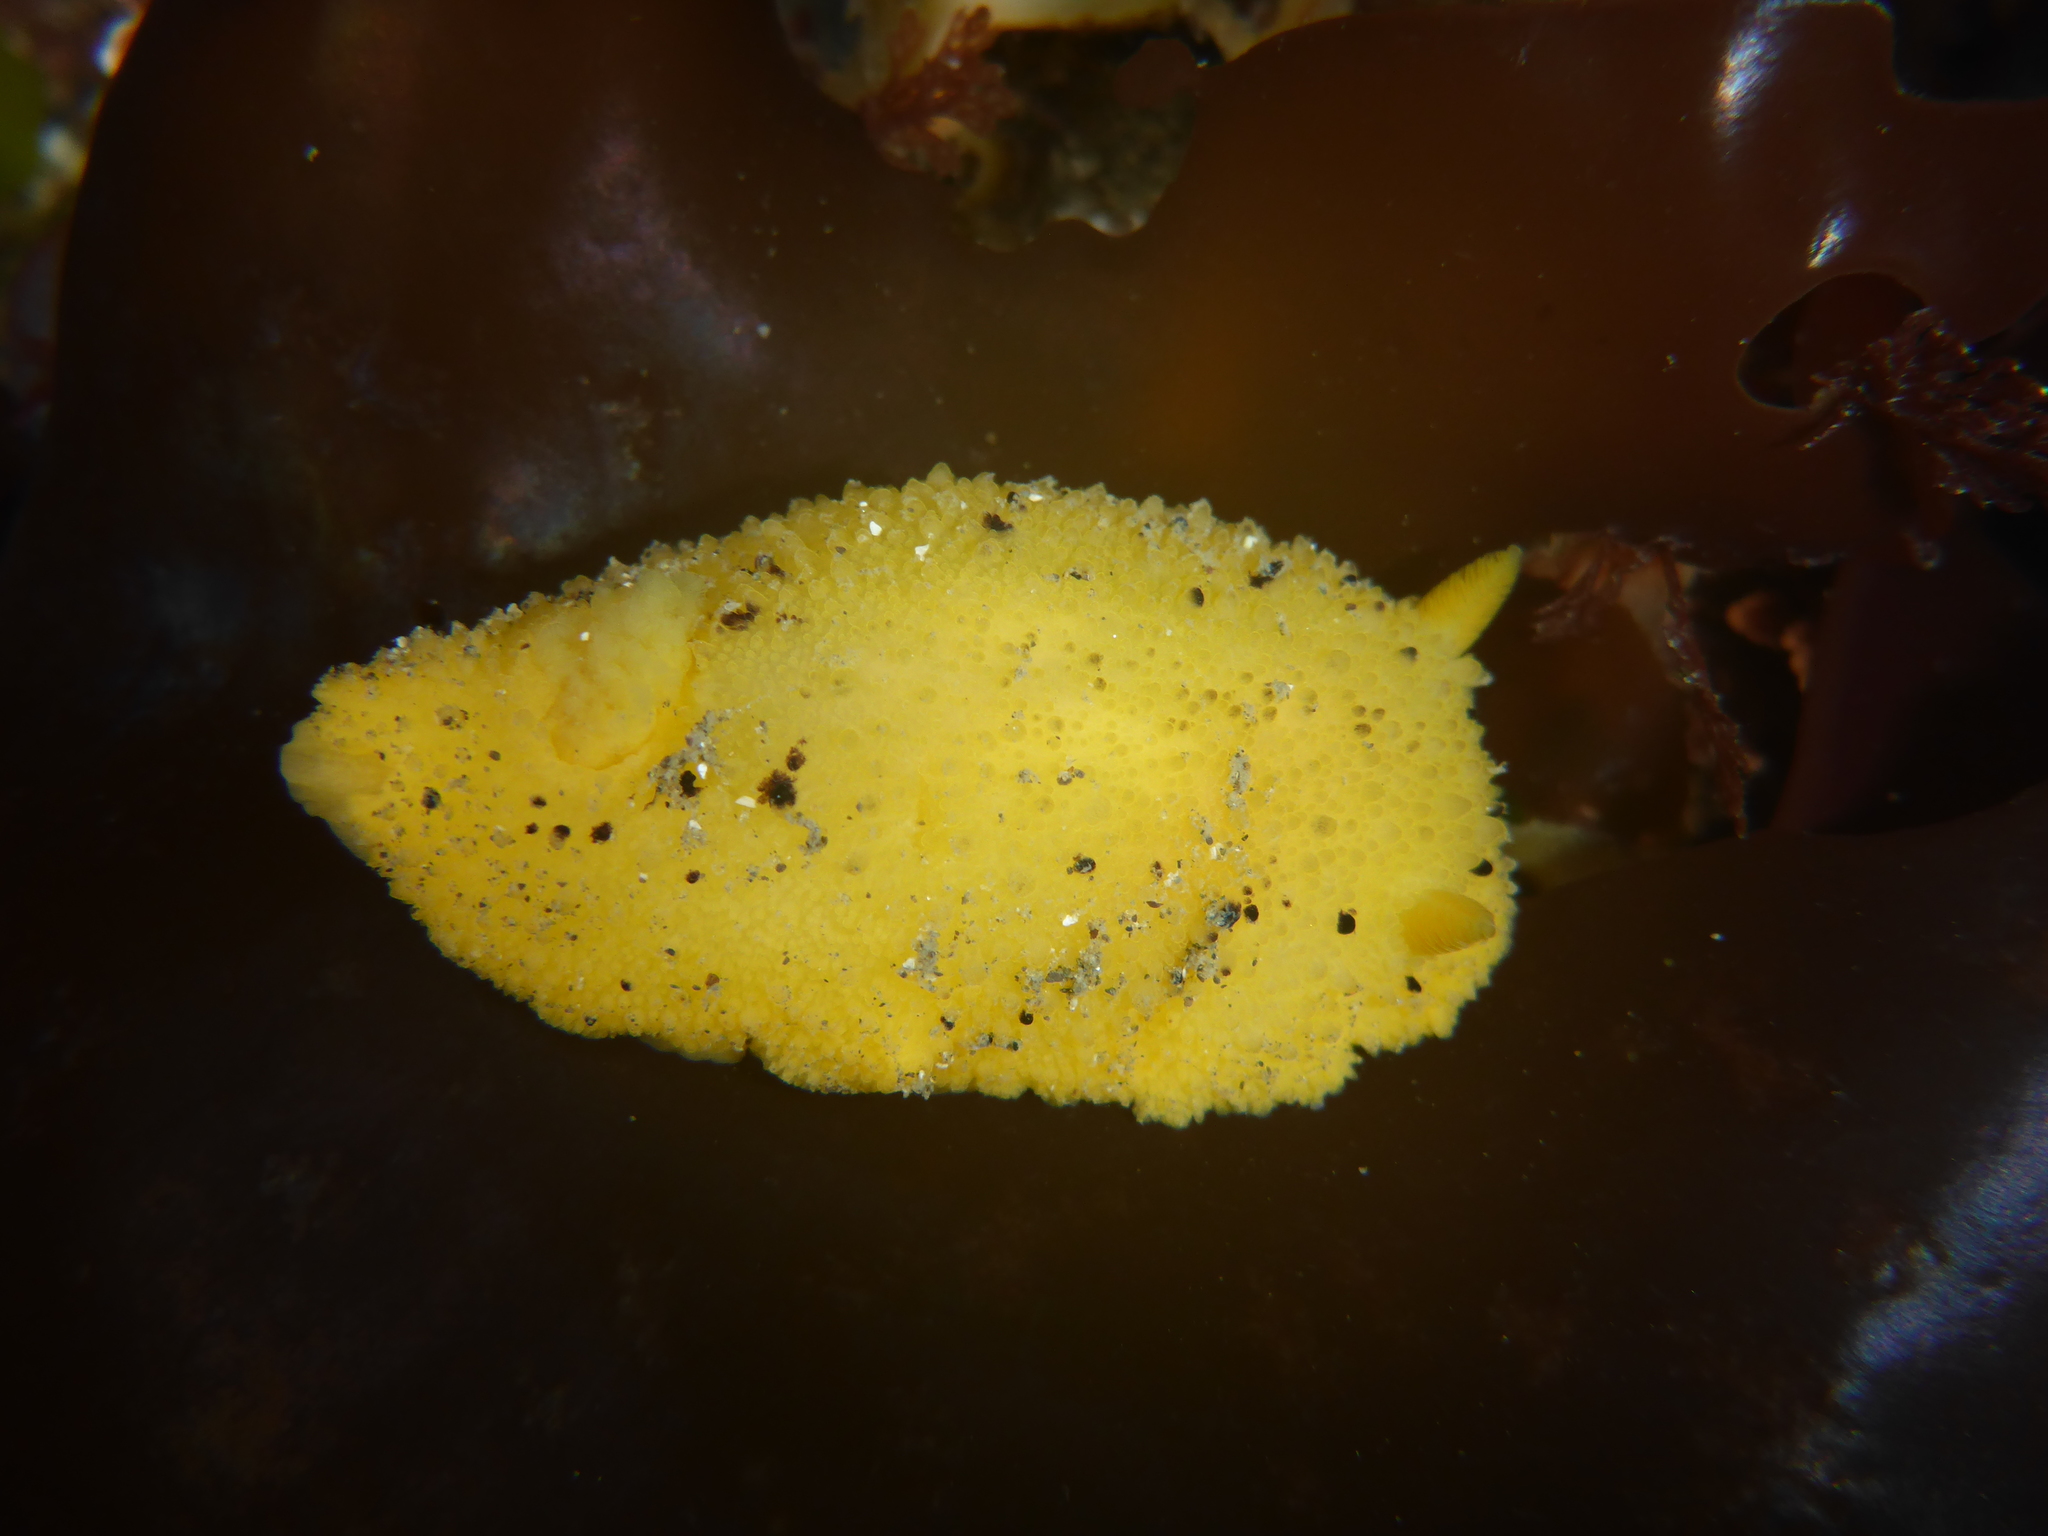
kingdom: Animalia
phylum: Mollusca
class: Gastropoda
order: Nudibranchia
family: Dorididae
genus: Doris
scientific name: Doris montereyensis
